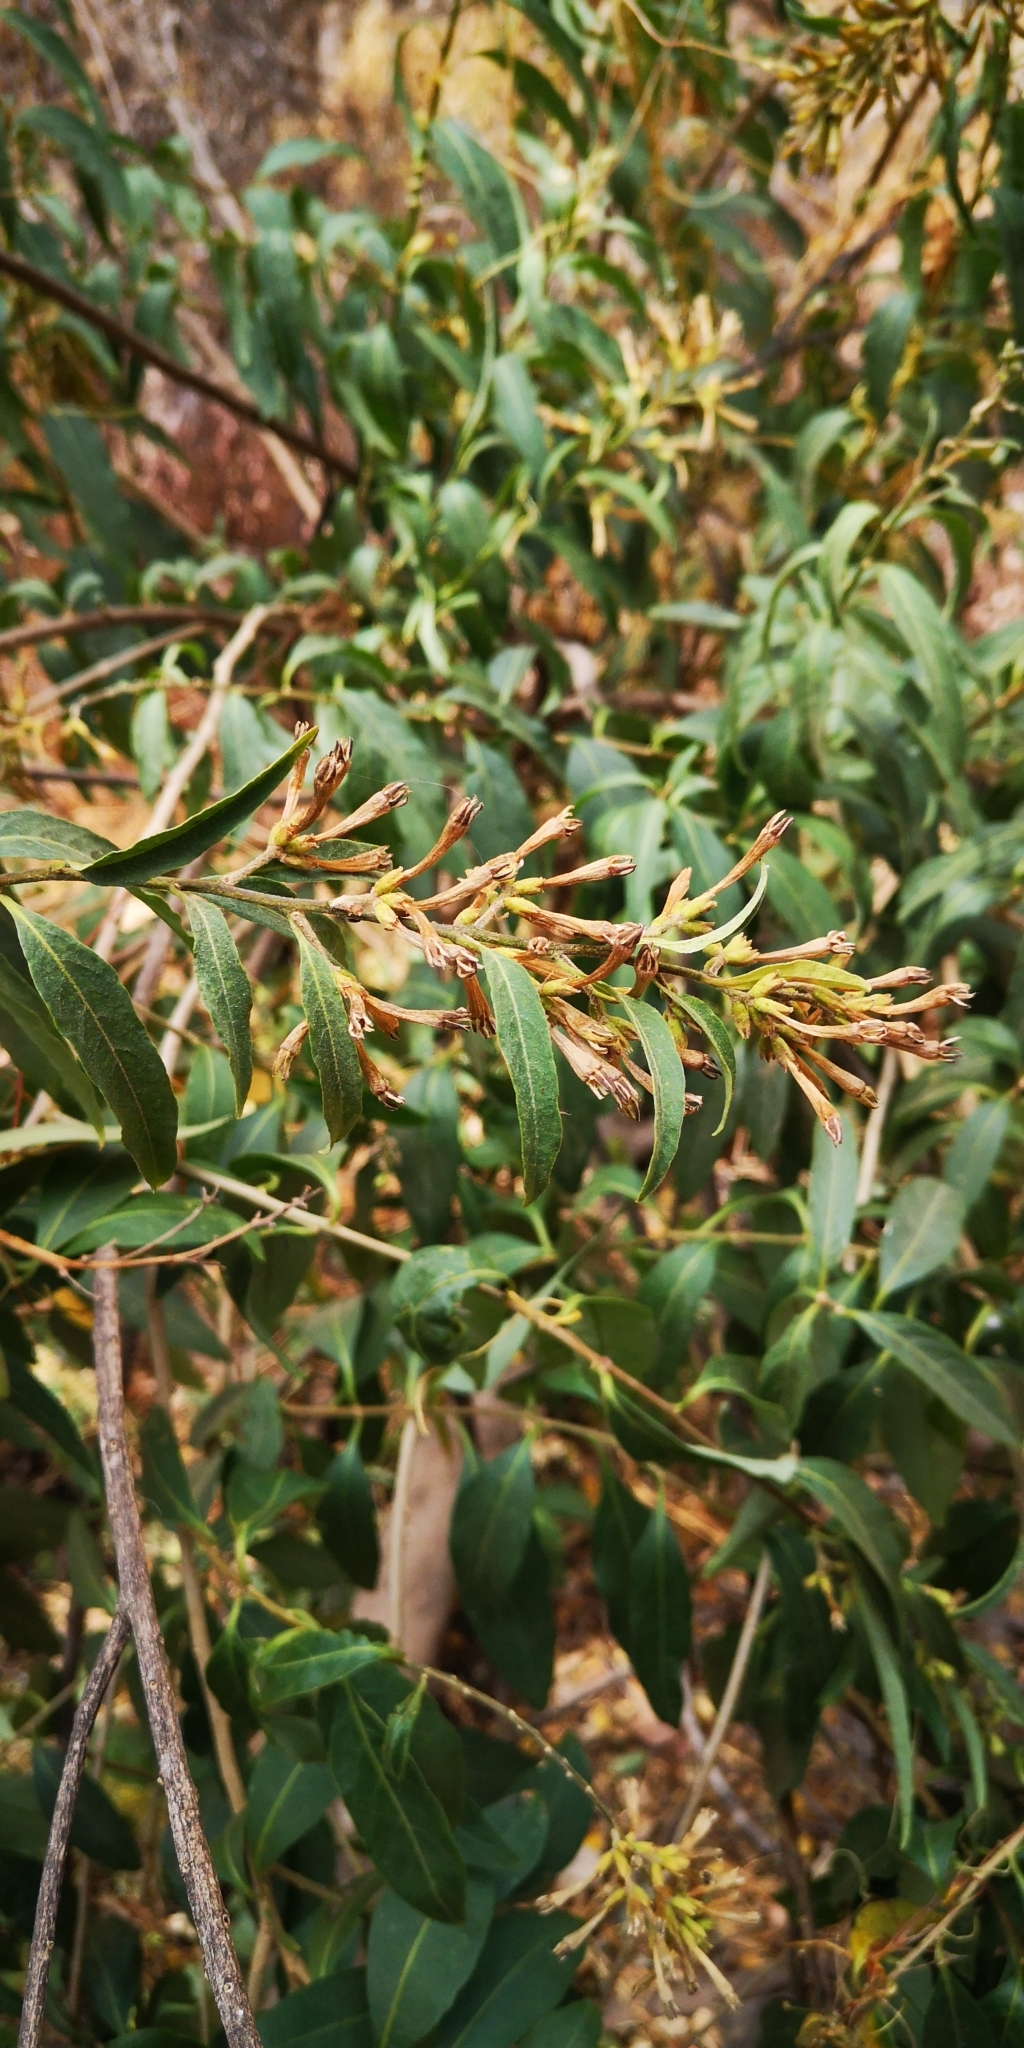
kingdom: Plantae
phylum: Tracheophyta
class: Magnoliopsida
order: Solanales
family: Solanaceae
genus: Cestrum
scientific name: Cestrum parqui
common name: Chilean cestrum
